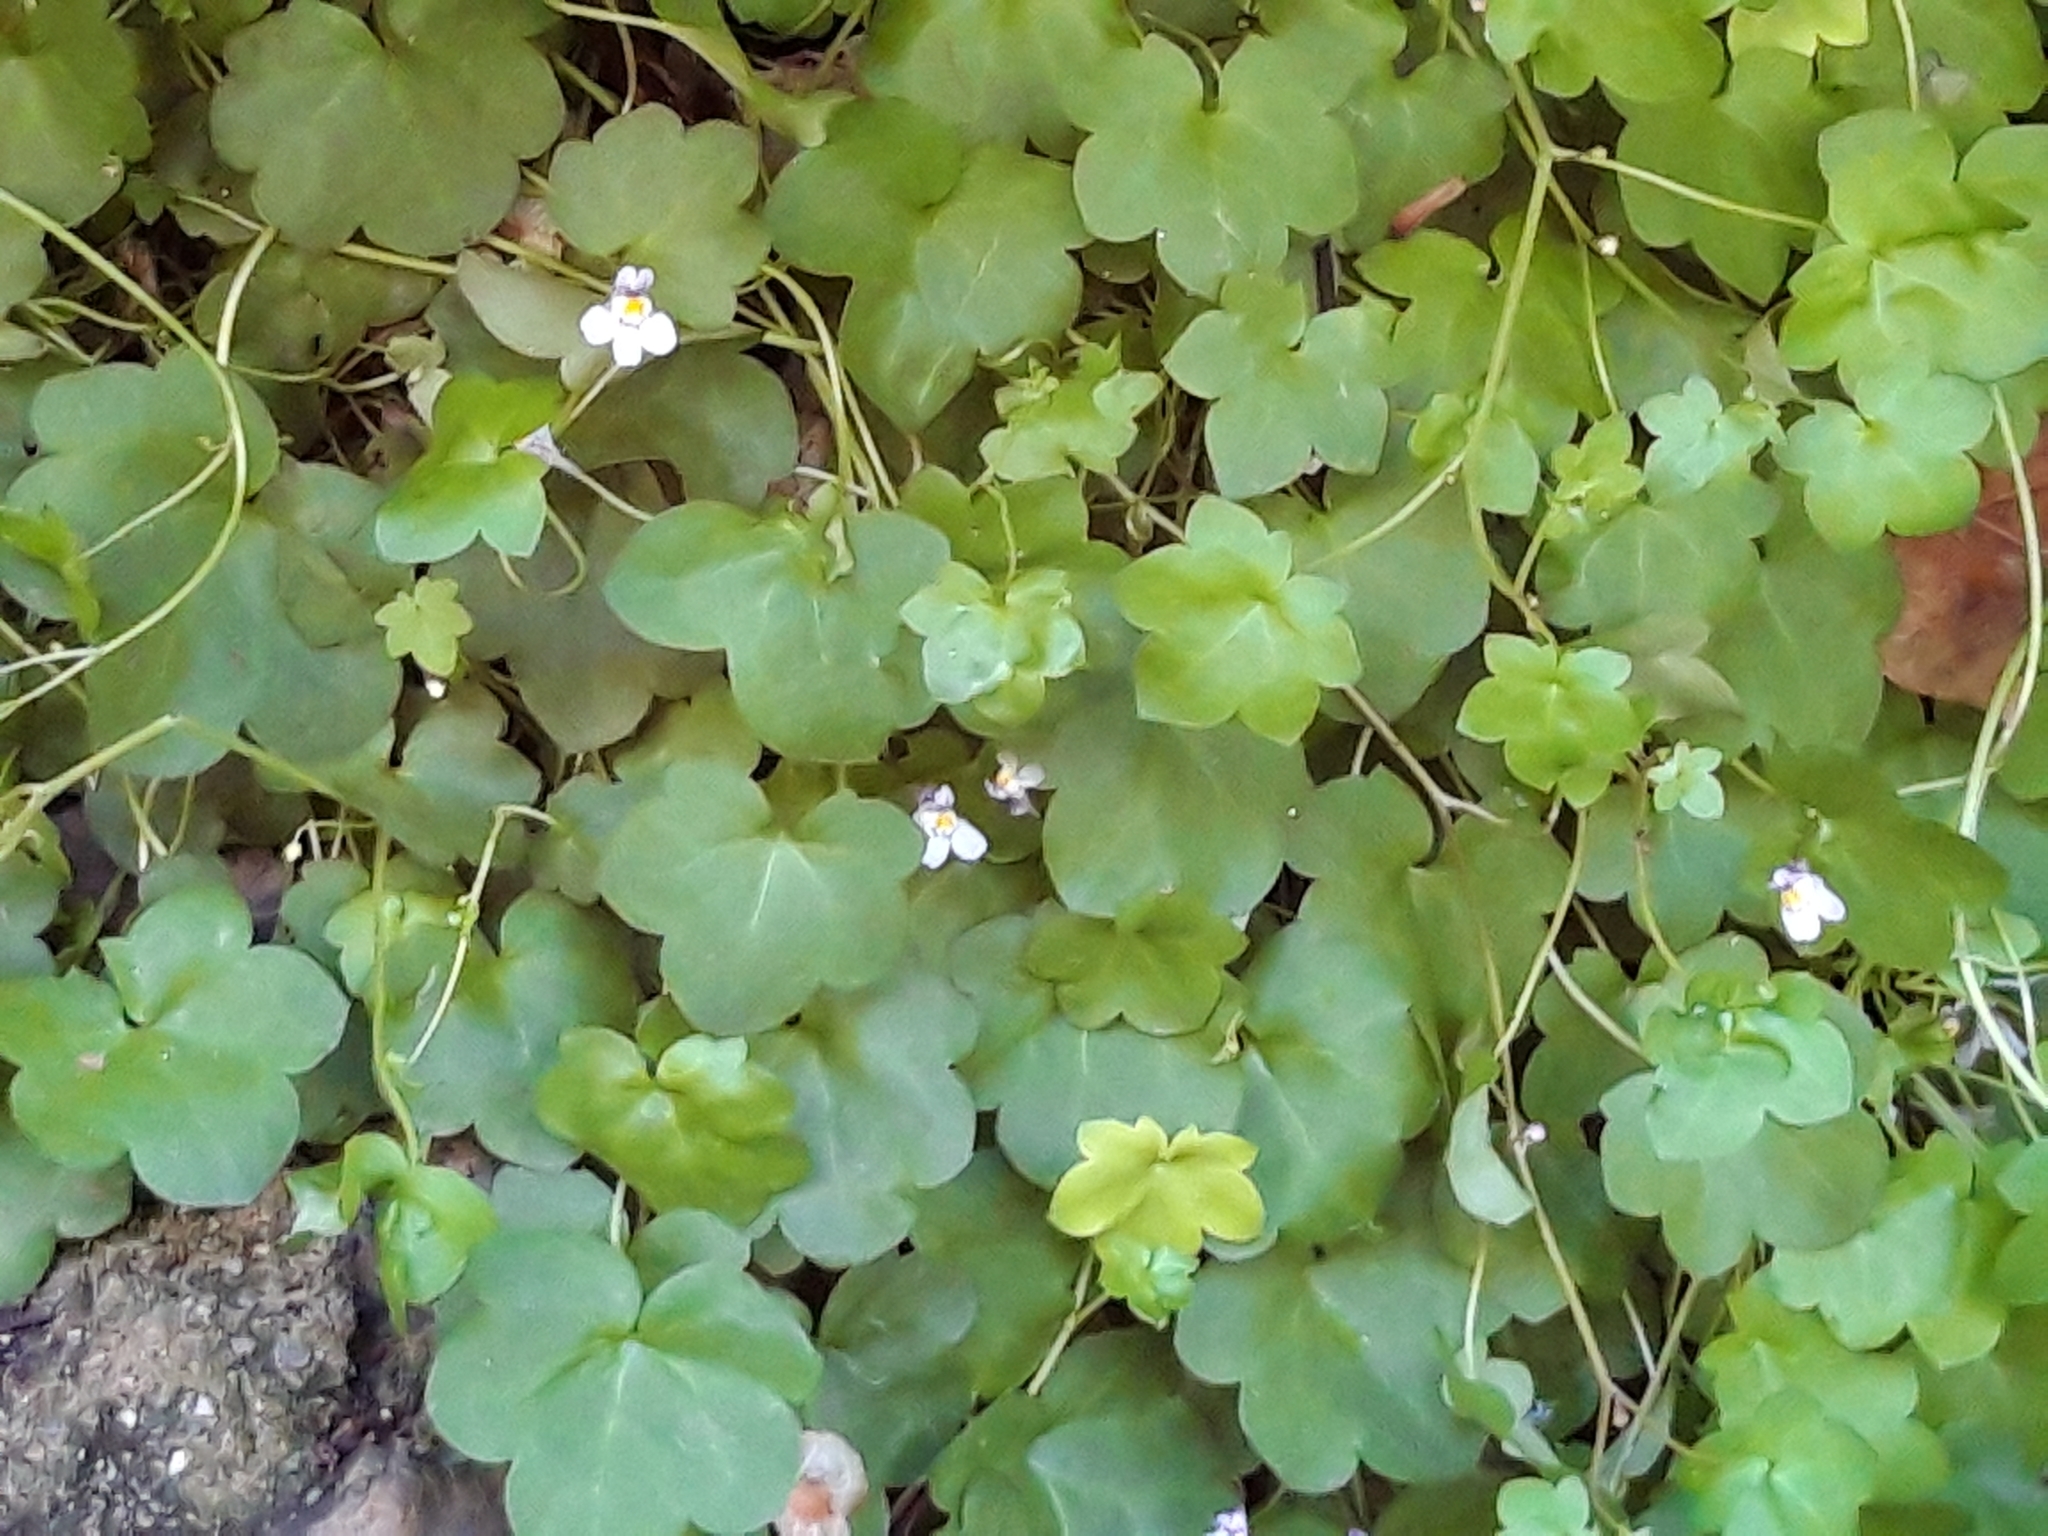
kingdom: Plantae
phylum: Tracheophyta
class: Magnoliopsida
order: Lamiales
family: Plantaginaceae
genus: Cymbalaria
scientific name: Cymbalaria muralis
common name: Ivy-leaved toadflax
